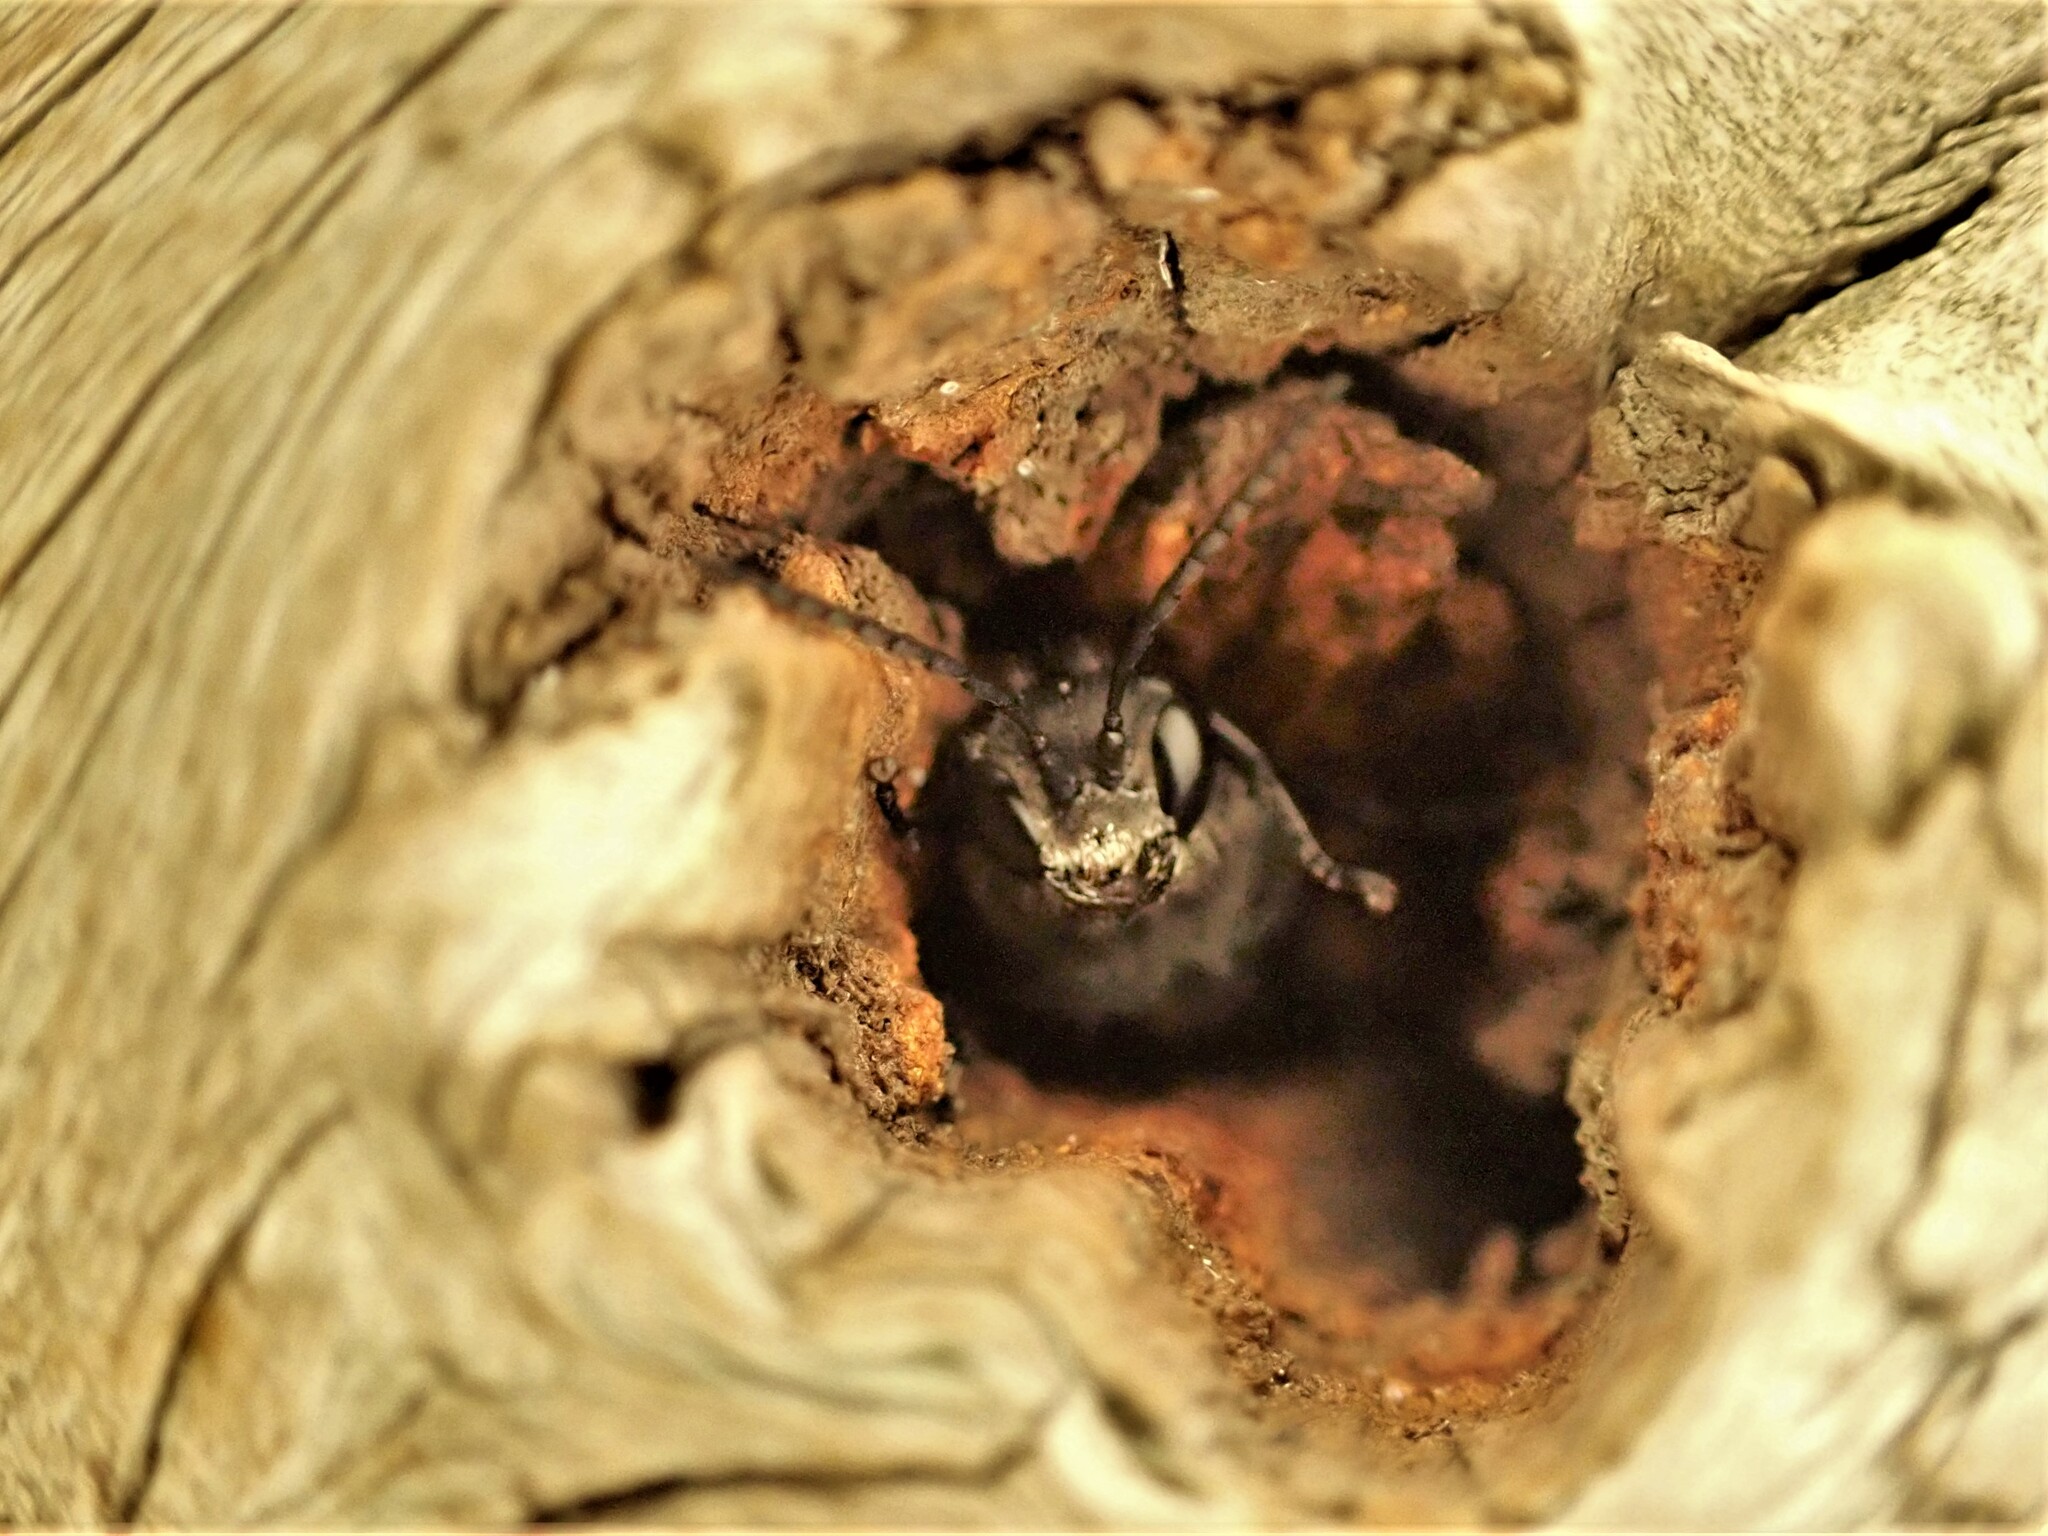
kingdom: Animalia
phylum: Arthropoda
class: Insecta
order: Hymenoptera
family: Crabronidae
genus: Pison
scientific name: Pison spinolae
